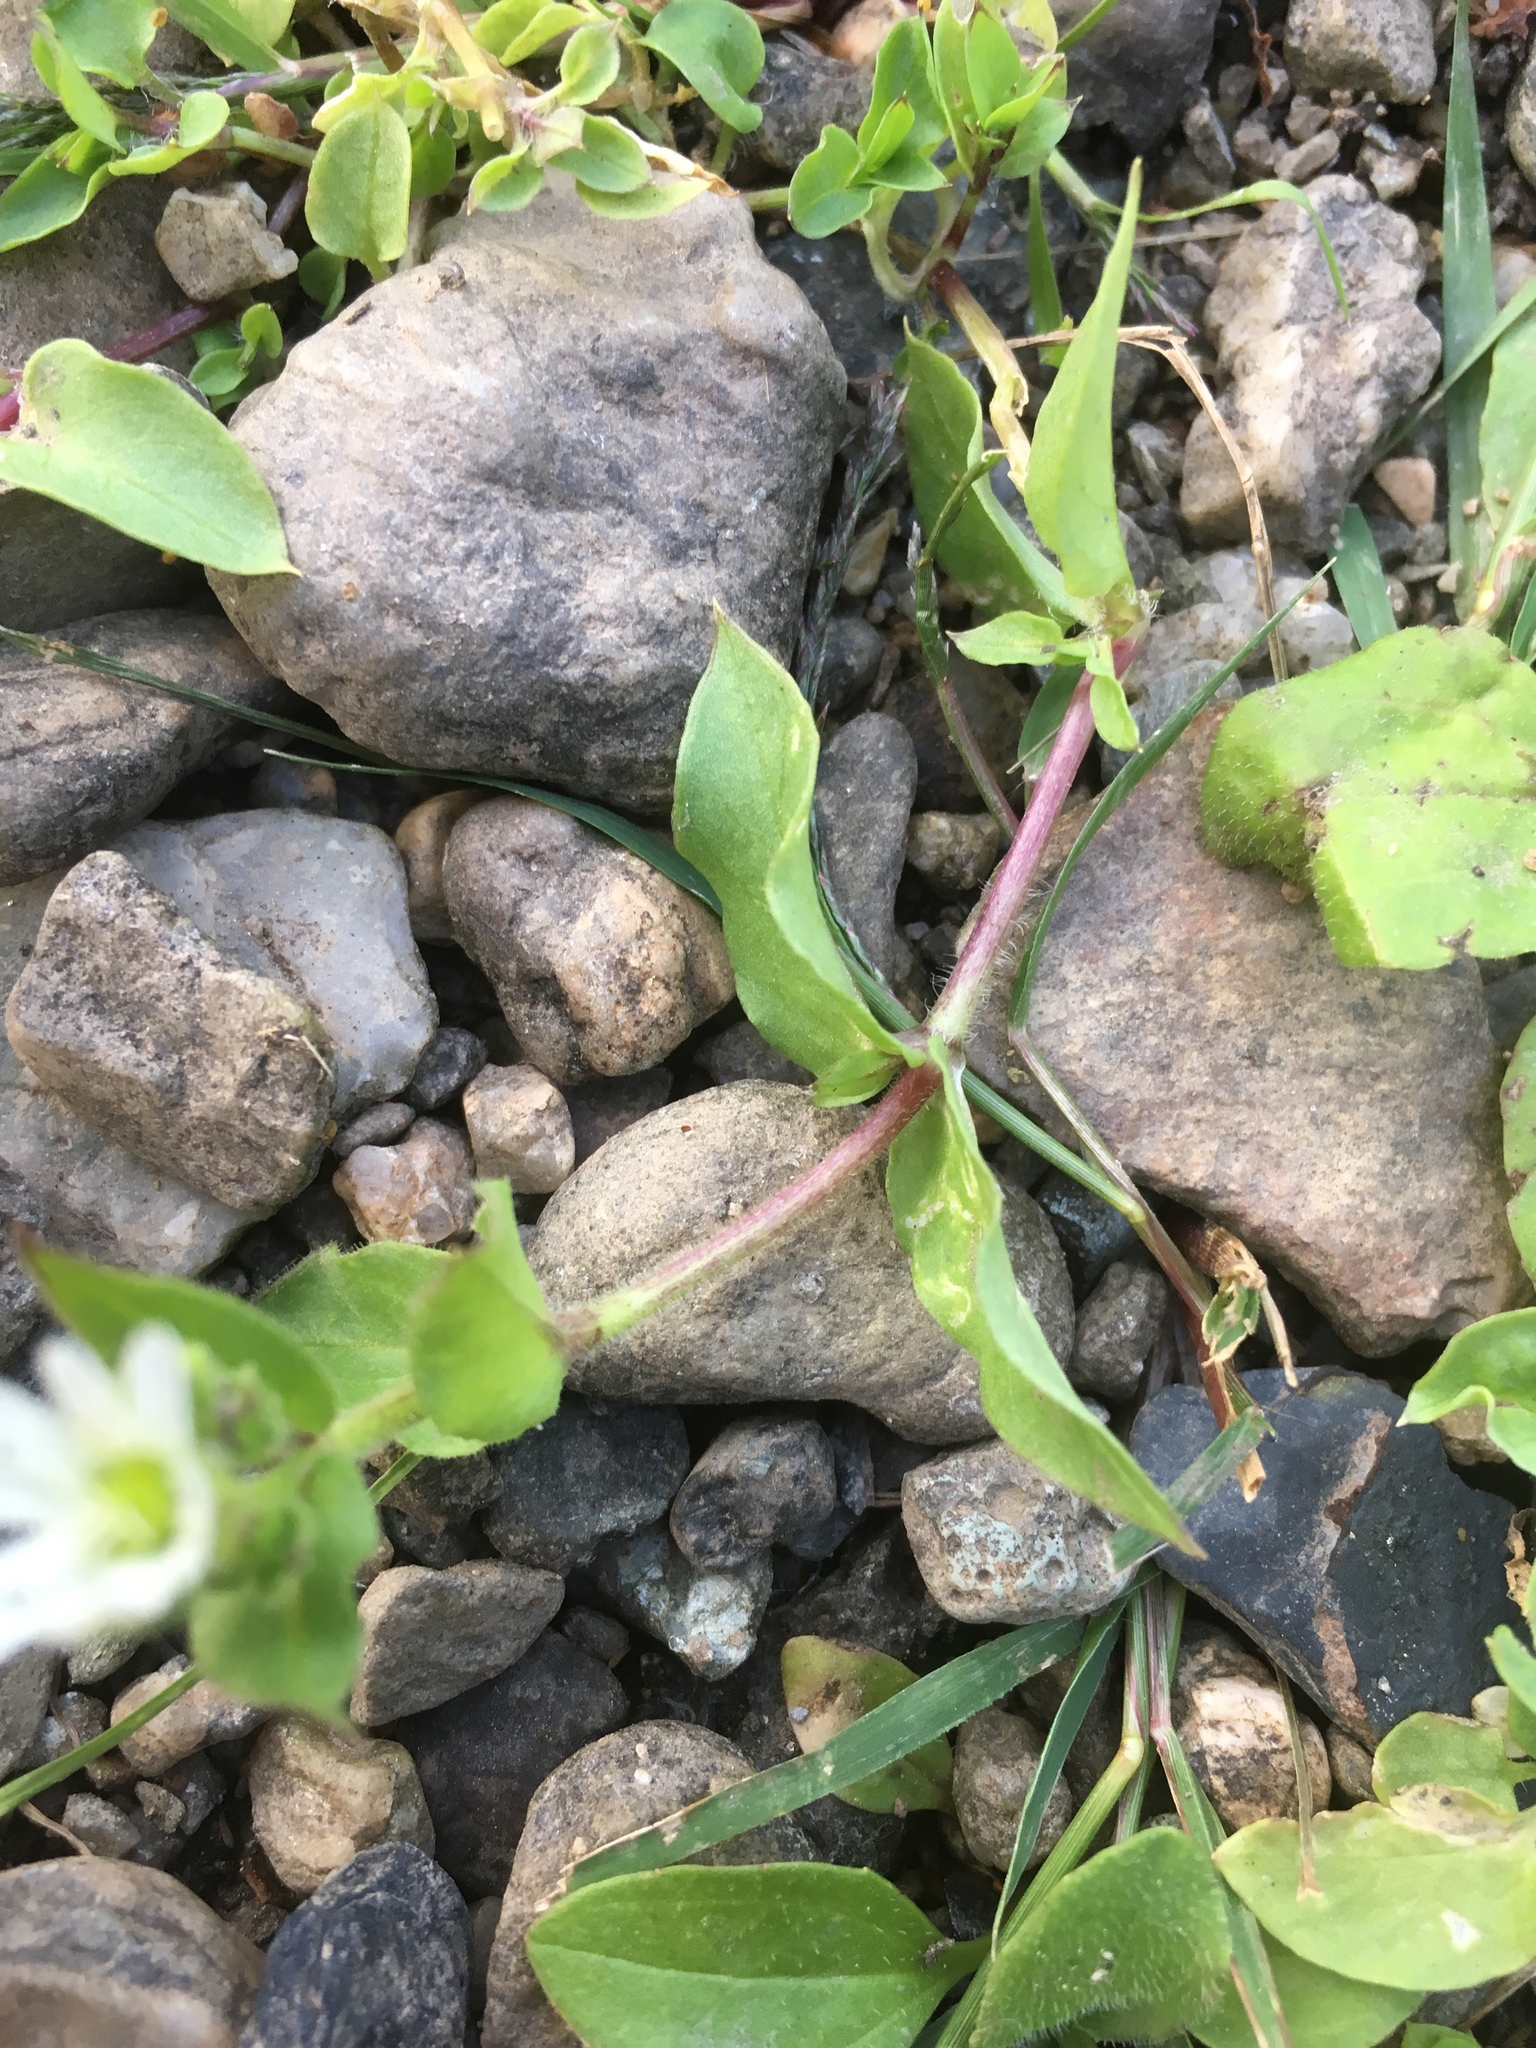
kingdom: Plantae
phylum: Tracheophyta
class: Magnoliopsida
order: Caryophyllales
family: Caryophyllaceae
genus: Stellaria
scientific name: Stellaria aquatica
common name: Water chickweed
